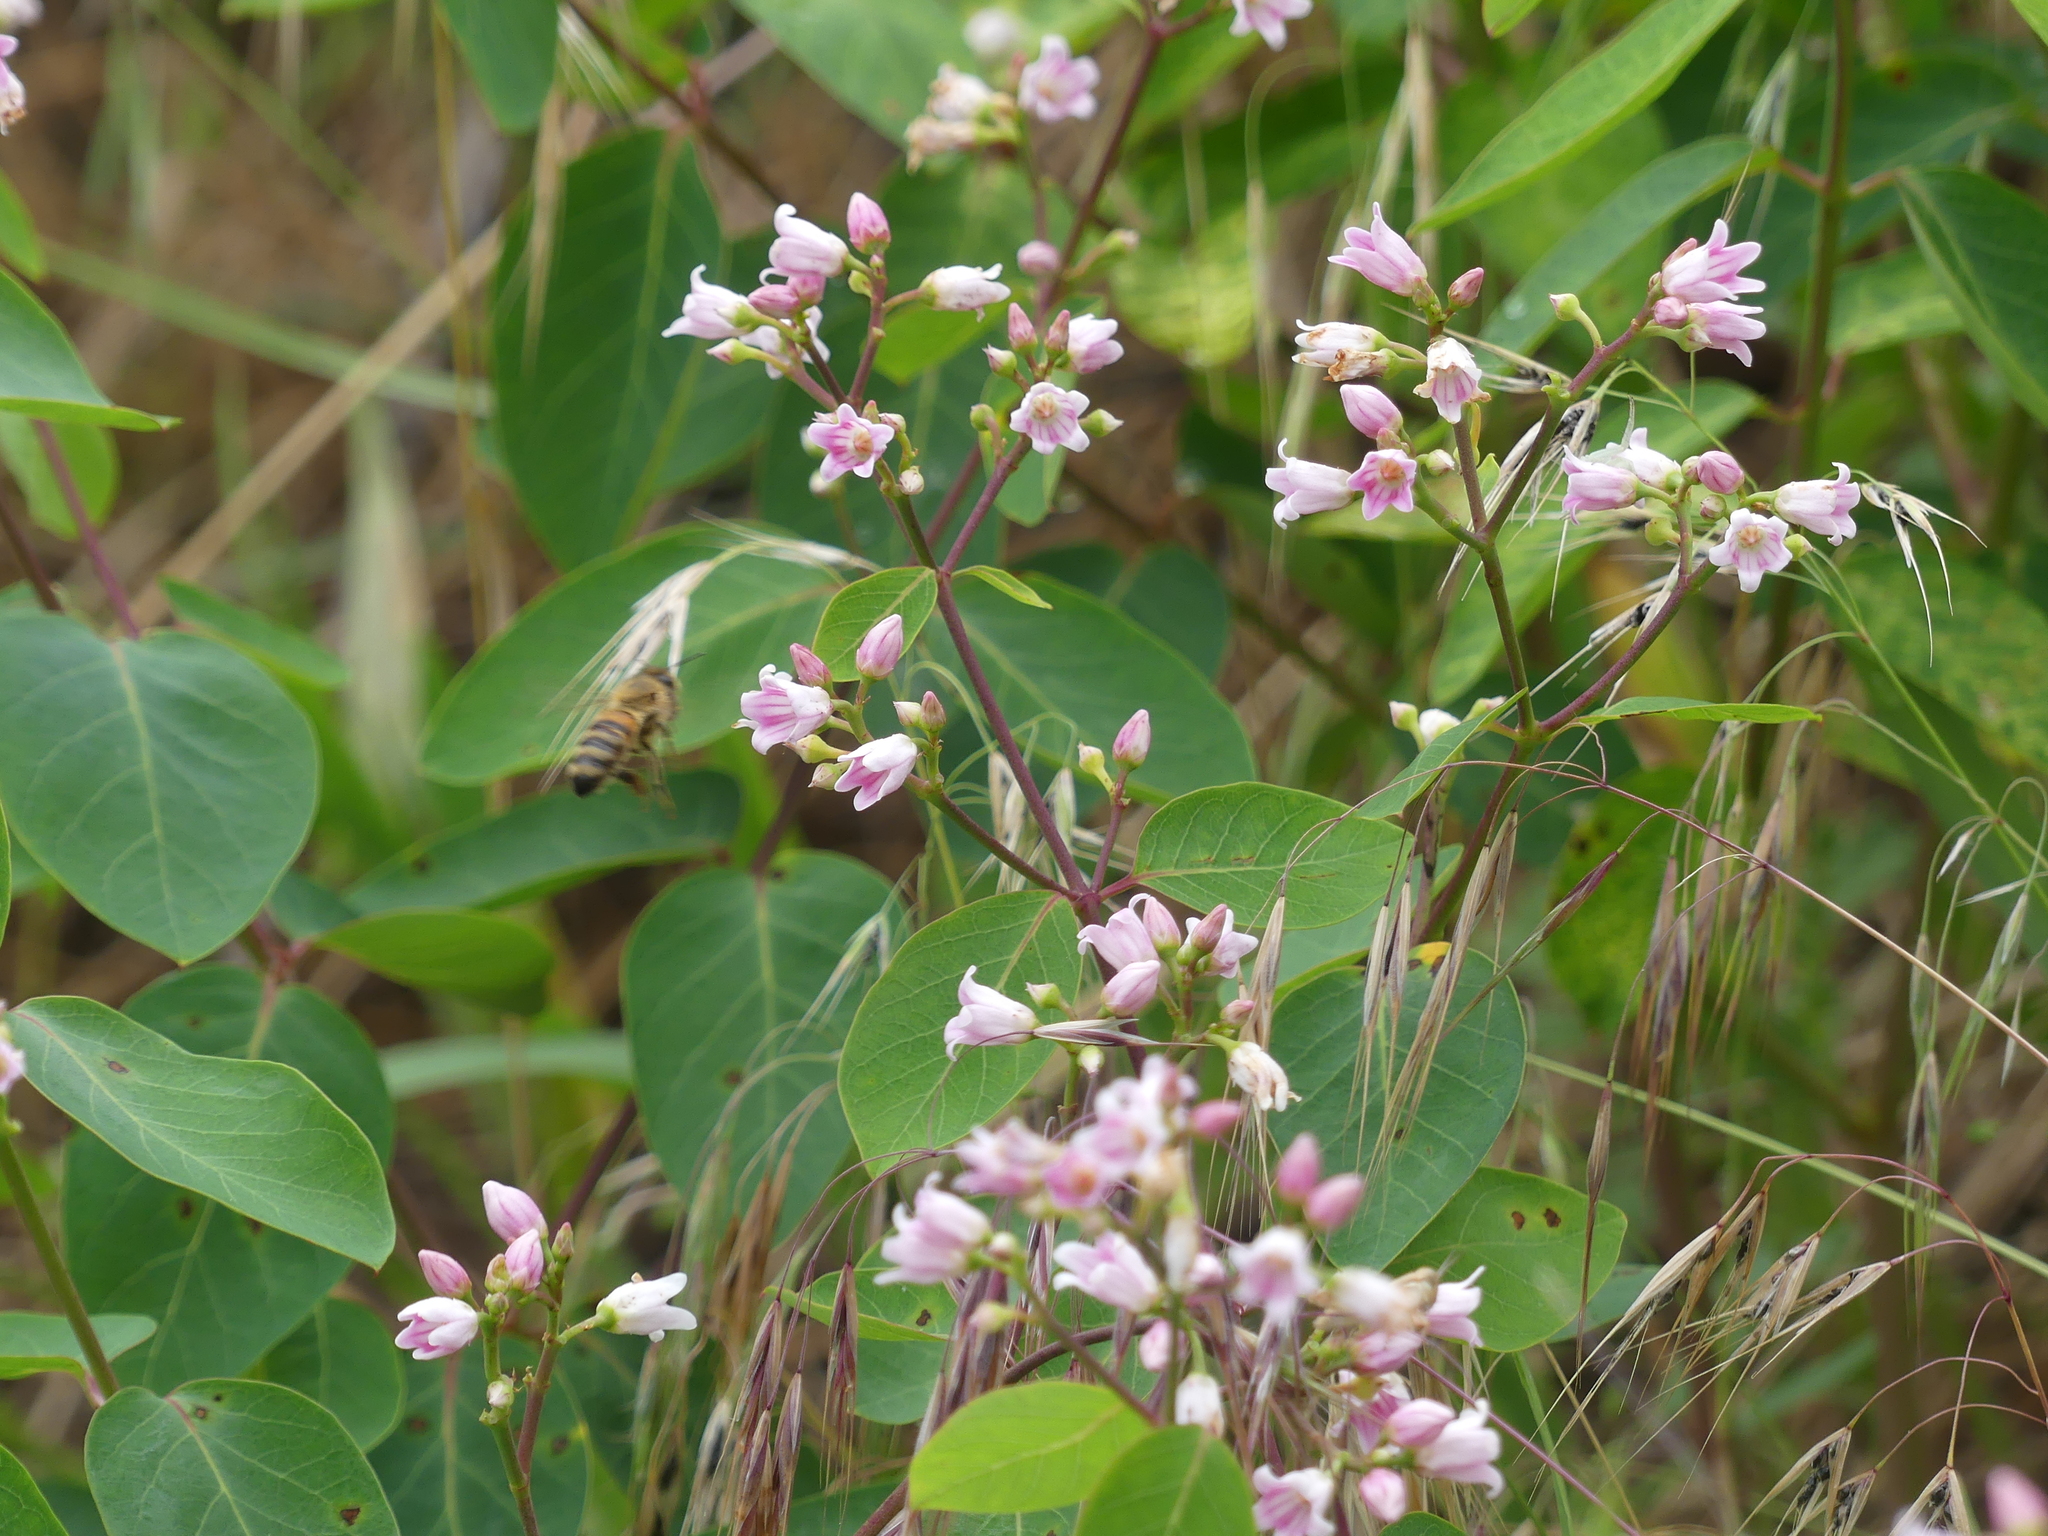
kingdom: Animalia
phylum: Arthropoda
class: Insecta
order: Hymenoptera
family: Apidae
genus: Apis
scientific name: Apis mellifera
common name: Honey bee
